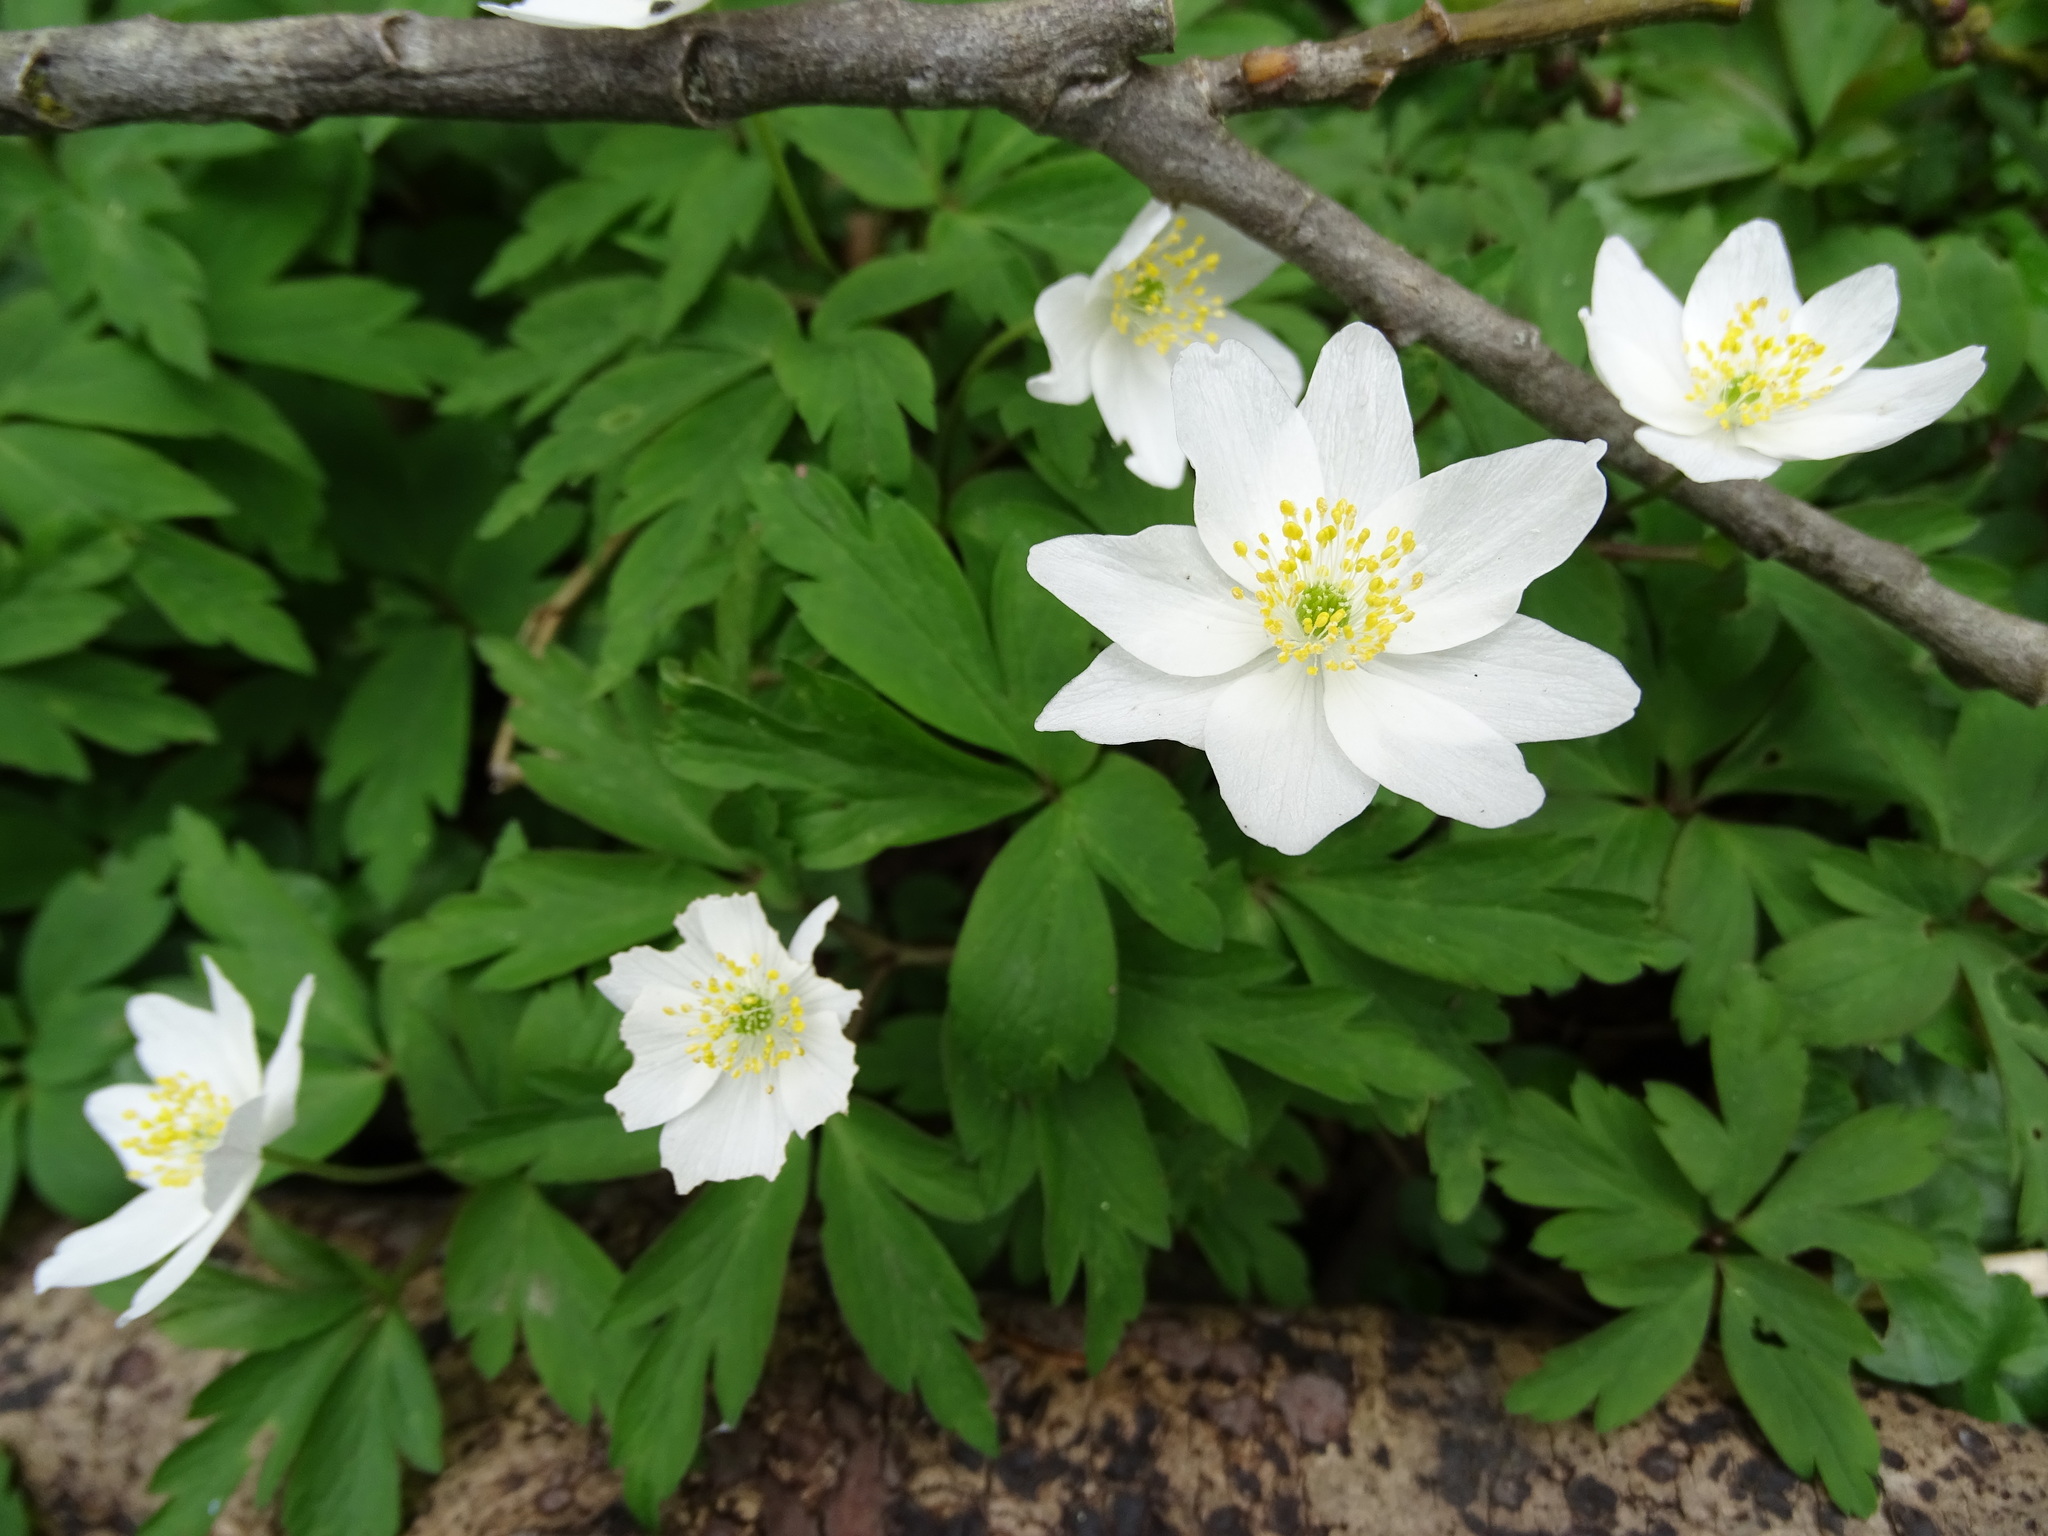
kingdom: Plantae
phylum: Tracheophyta
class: Magnoliopsida
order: Ranunculales
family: Ranunculaceae
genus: Anemone
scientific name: Anemone nemorosa
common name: Wood anemone
